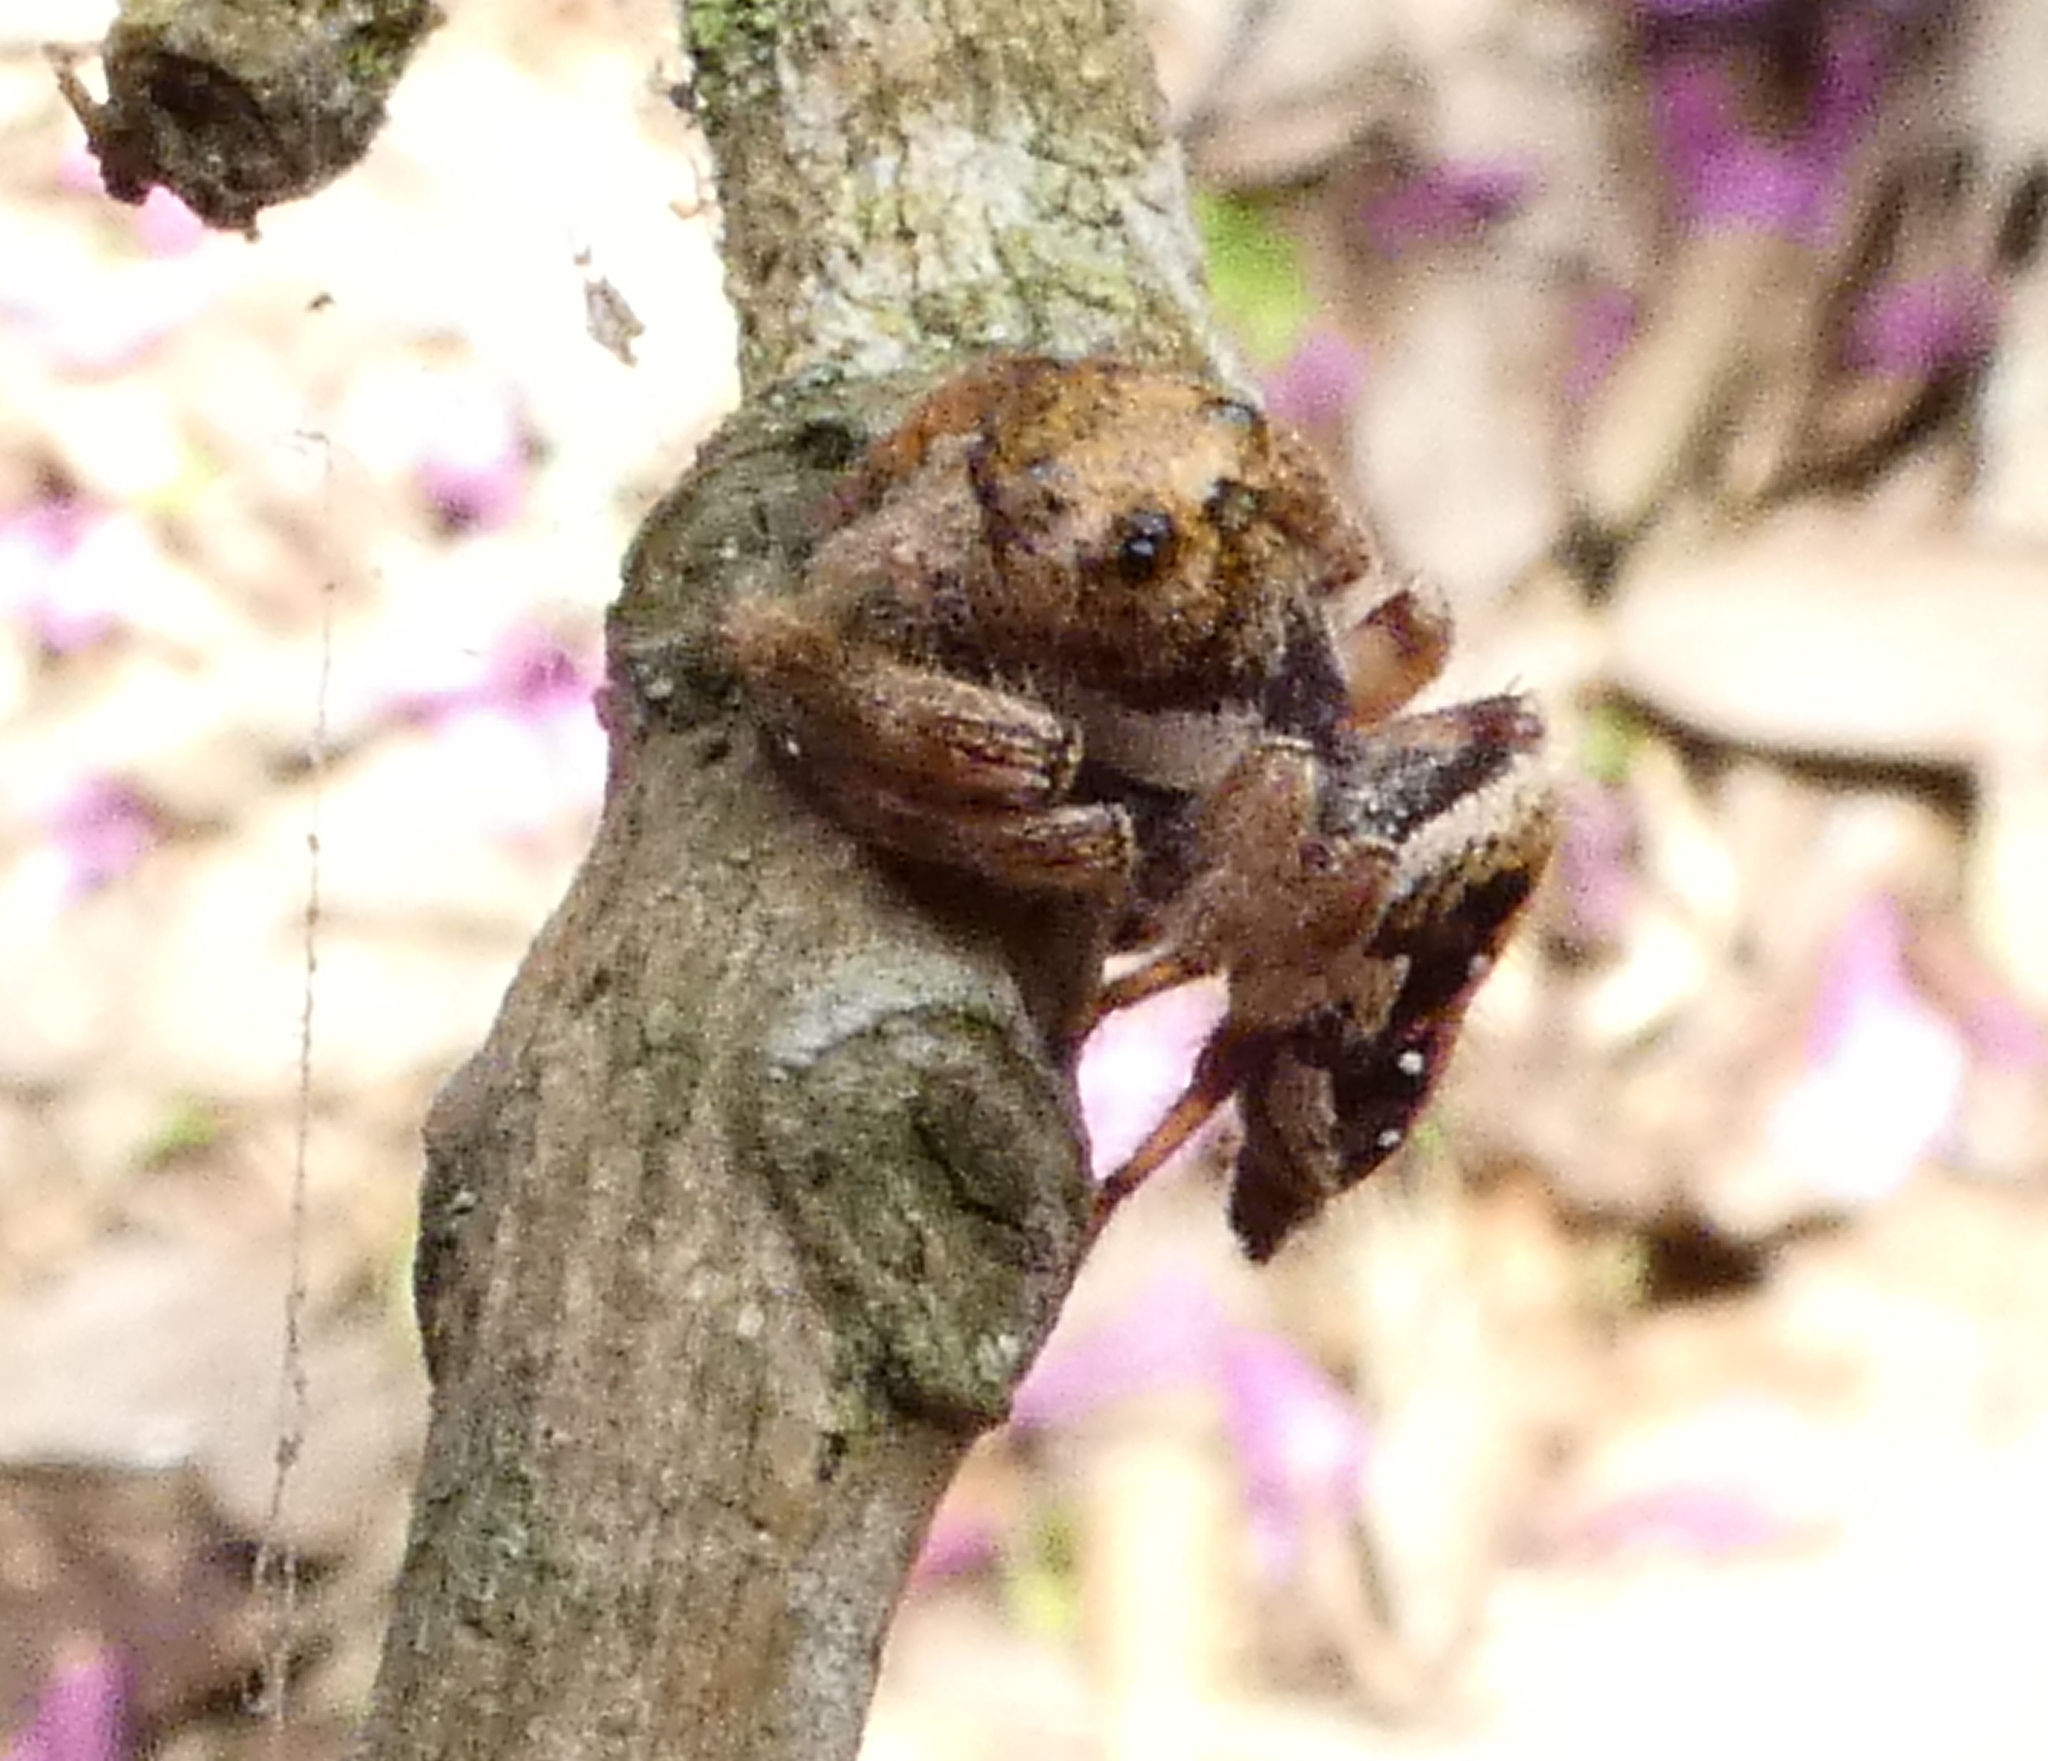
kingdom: Animalia
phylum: Arthropoda
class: Arachnida
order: Araneae
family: Salticidae
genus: Parnaenus
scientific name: Parnaenus cyanidens
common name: Jumping spiders
